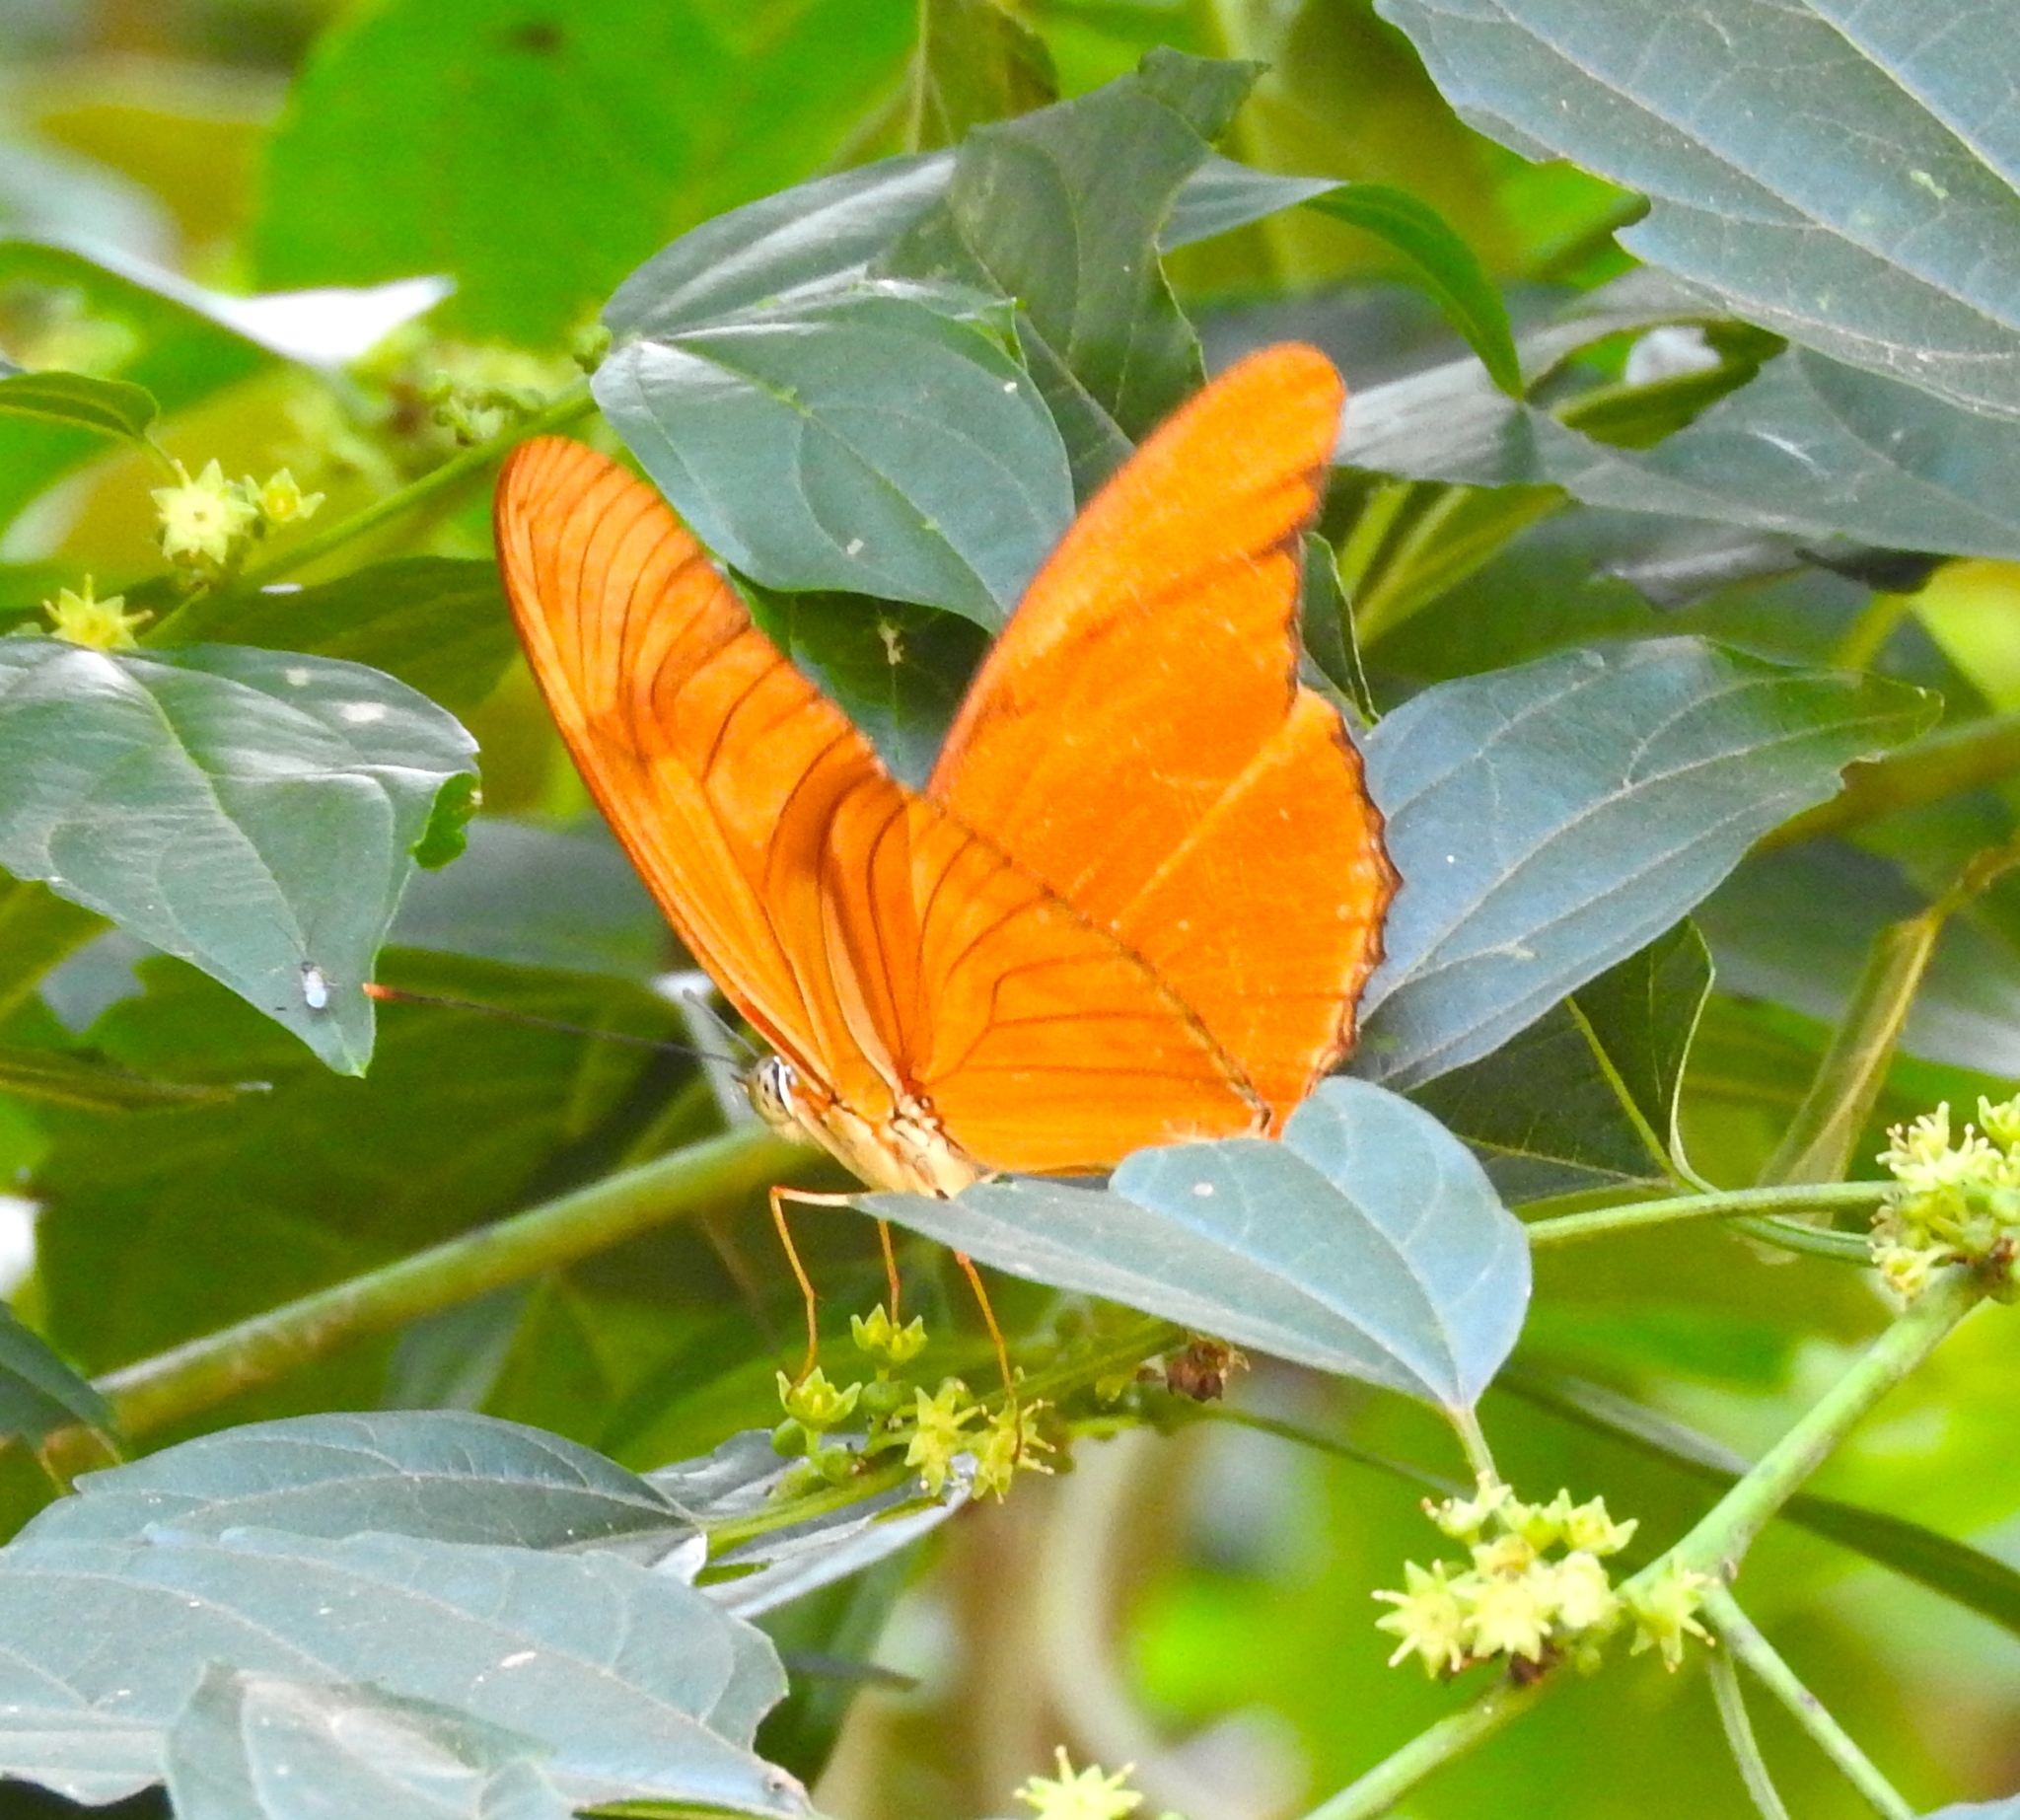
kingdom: Animalia
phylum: Arthropoda
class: Insecta
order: Lepidoptera
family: Nymphalidae
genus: Dryas
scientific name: Dryas iulia
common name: Flambeau
